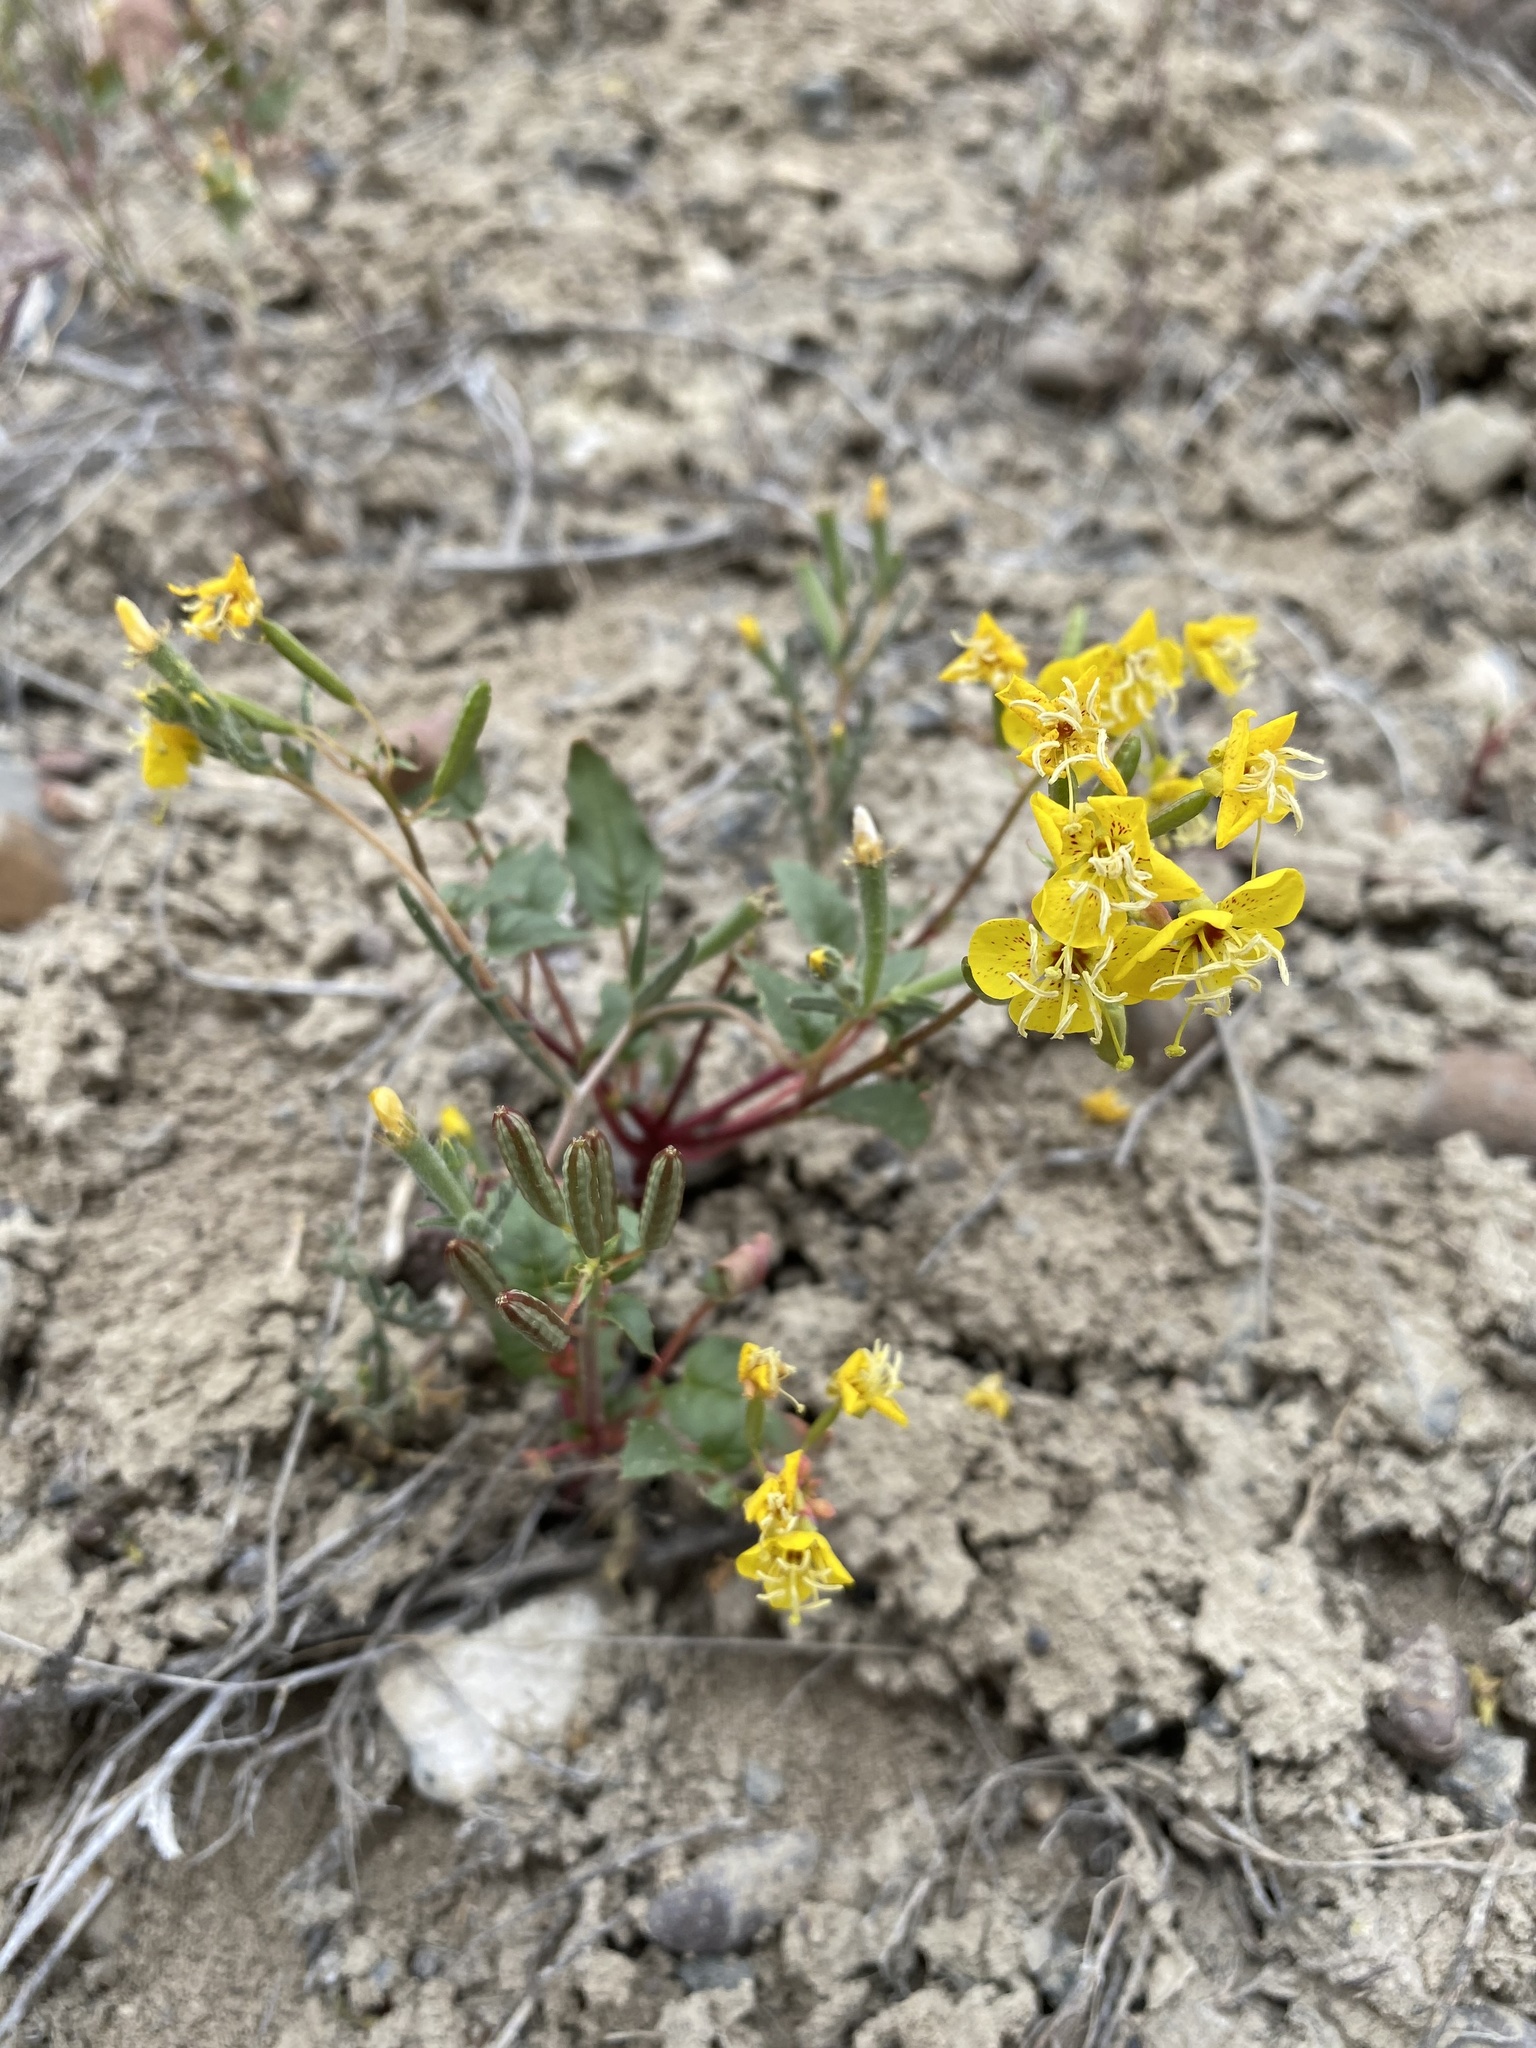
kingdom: Plantae
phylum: Tracheophyta
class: Magnoliopsida
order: Myrtales
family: Onagraceae
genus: Chylismia
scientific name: Chylismia claviformis
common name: Browneyes
